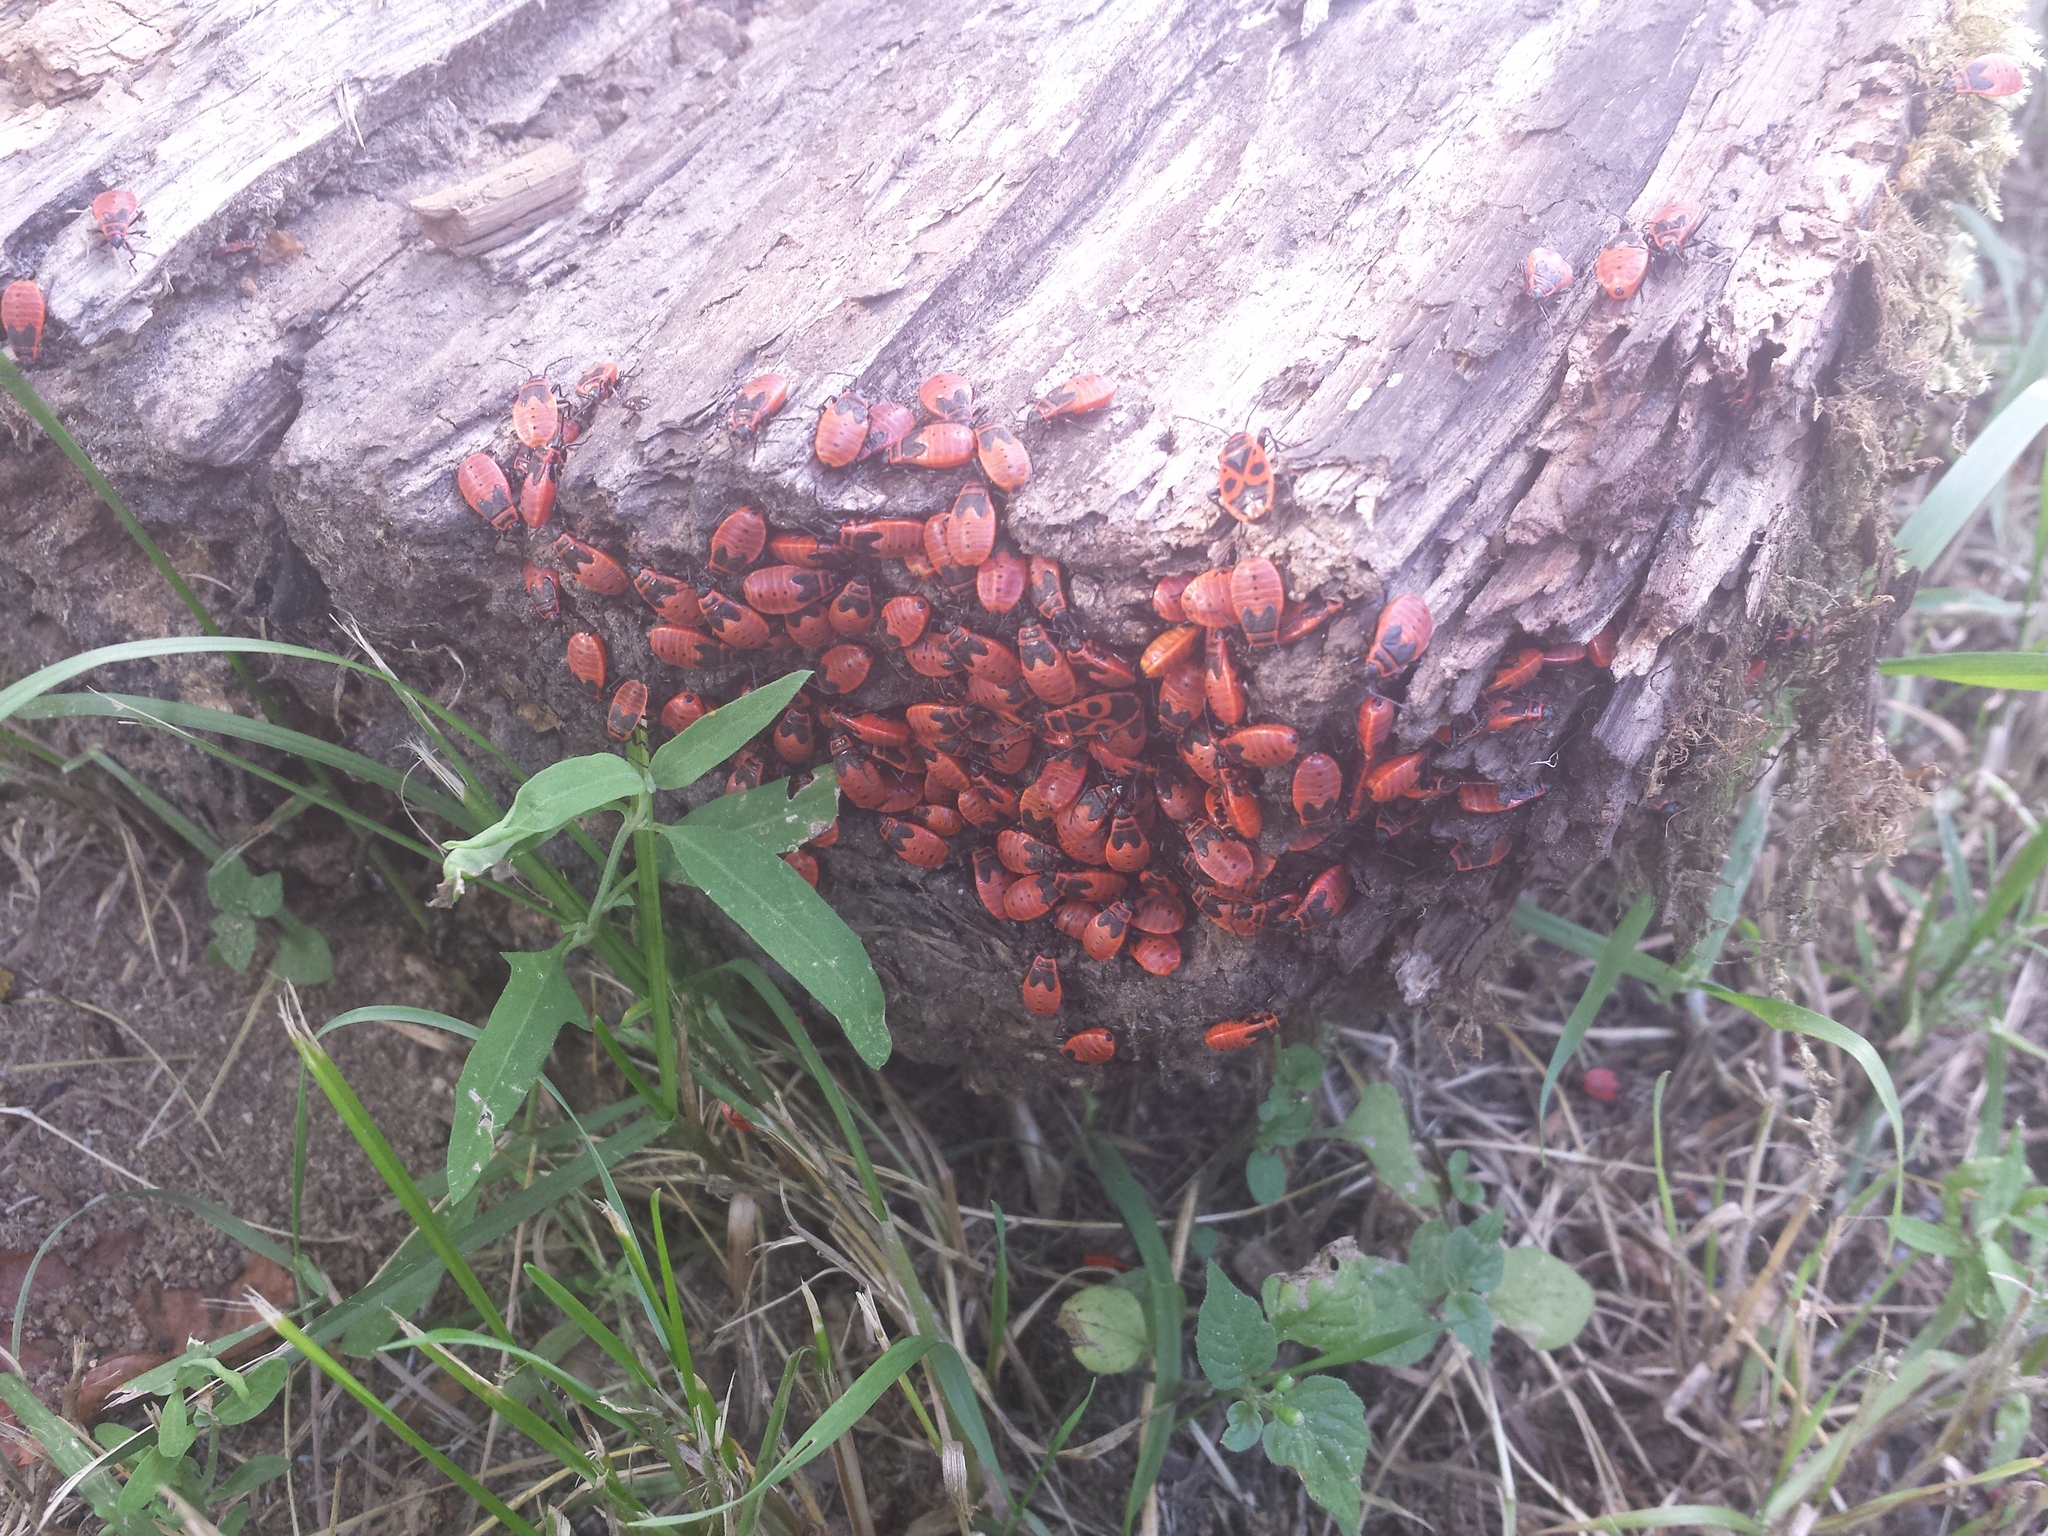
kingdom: Animalia
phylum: Arthropoda
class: Insecta
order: Hemiptera
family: Pyrrhocoridae
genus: Pyrrhocoris
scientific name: Pyrrhocoris apterus
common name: Firebug
